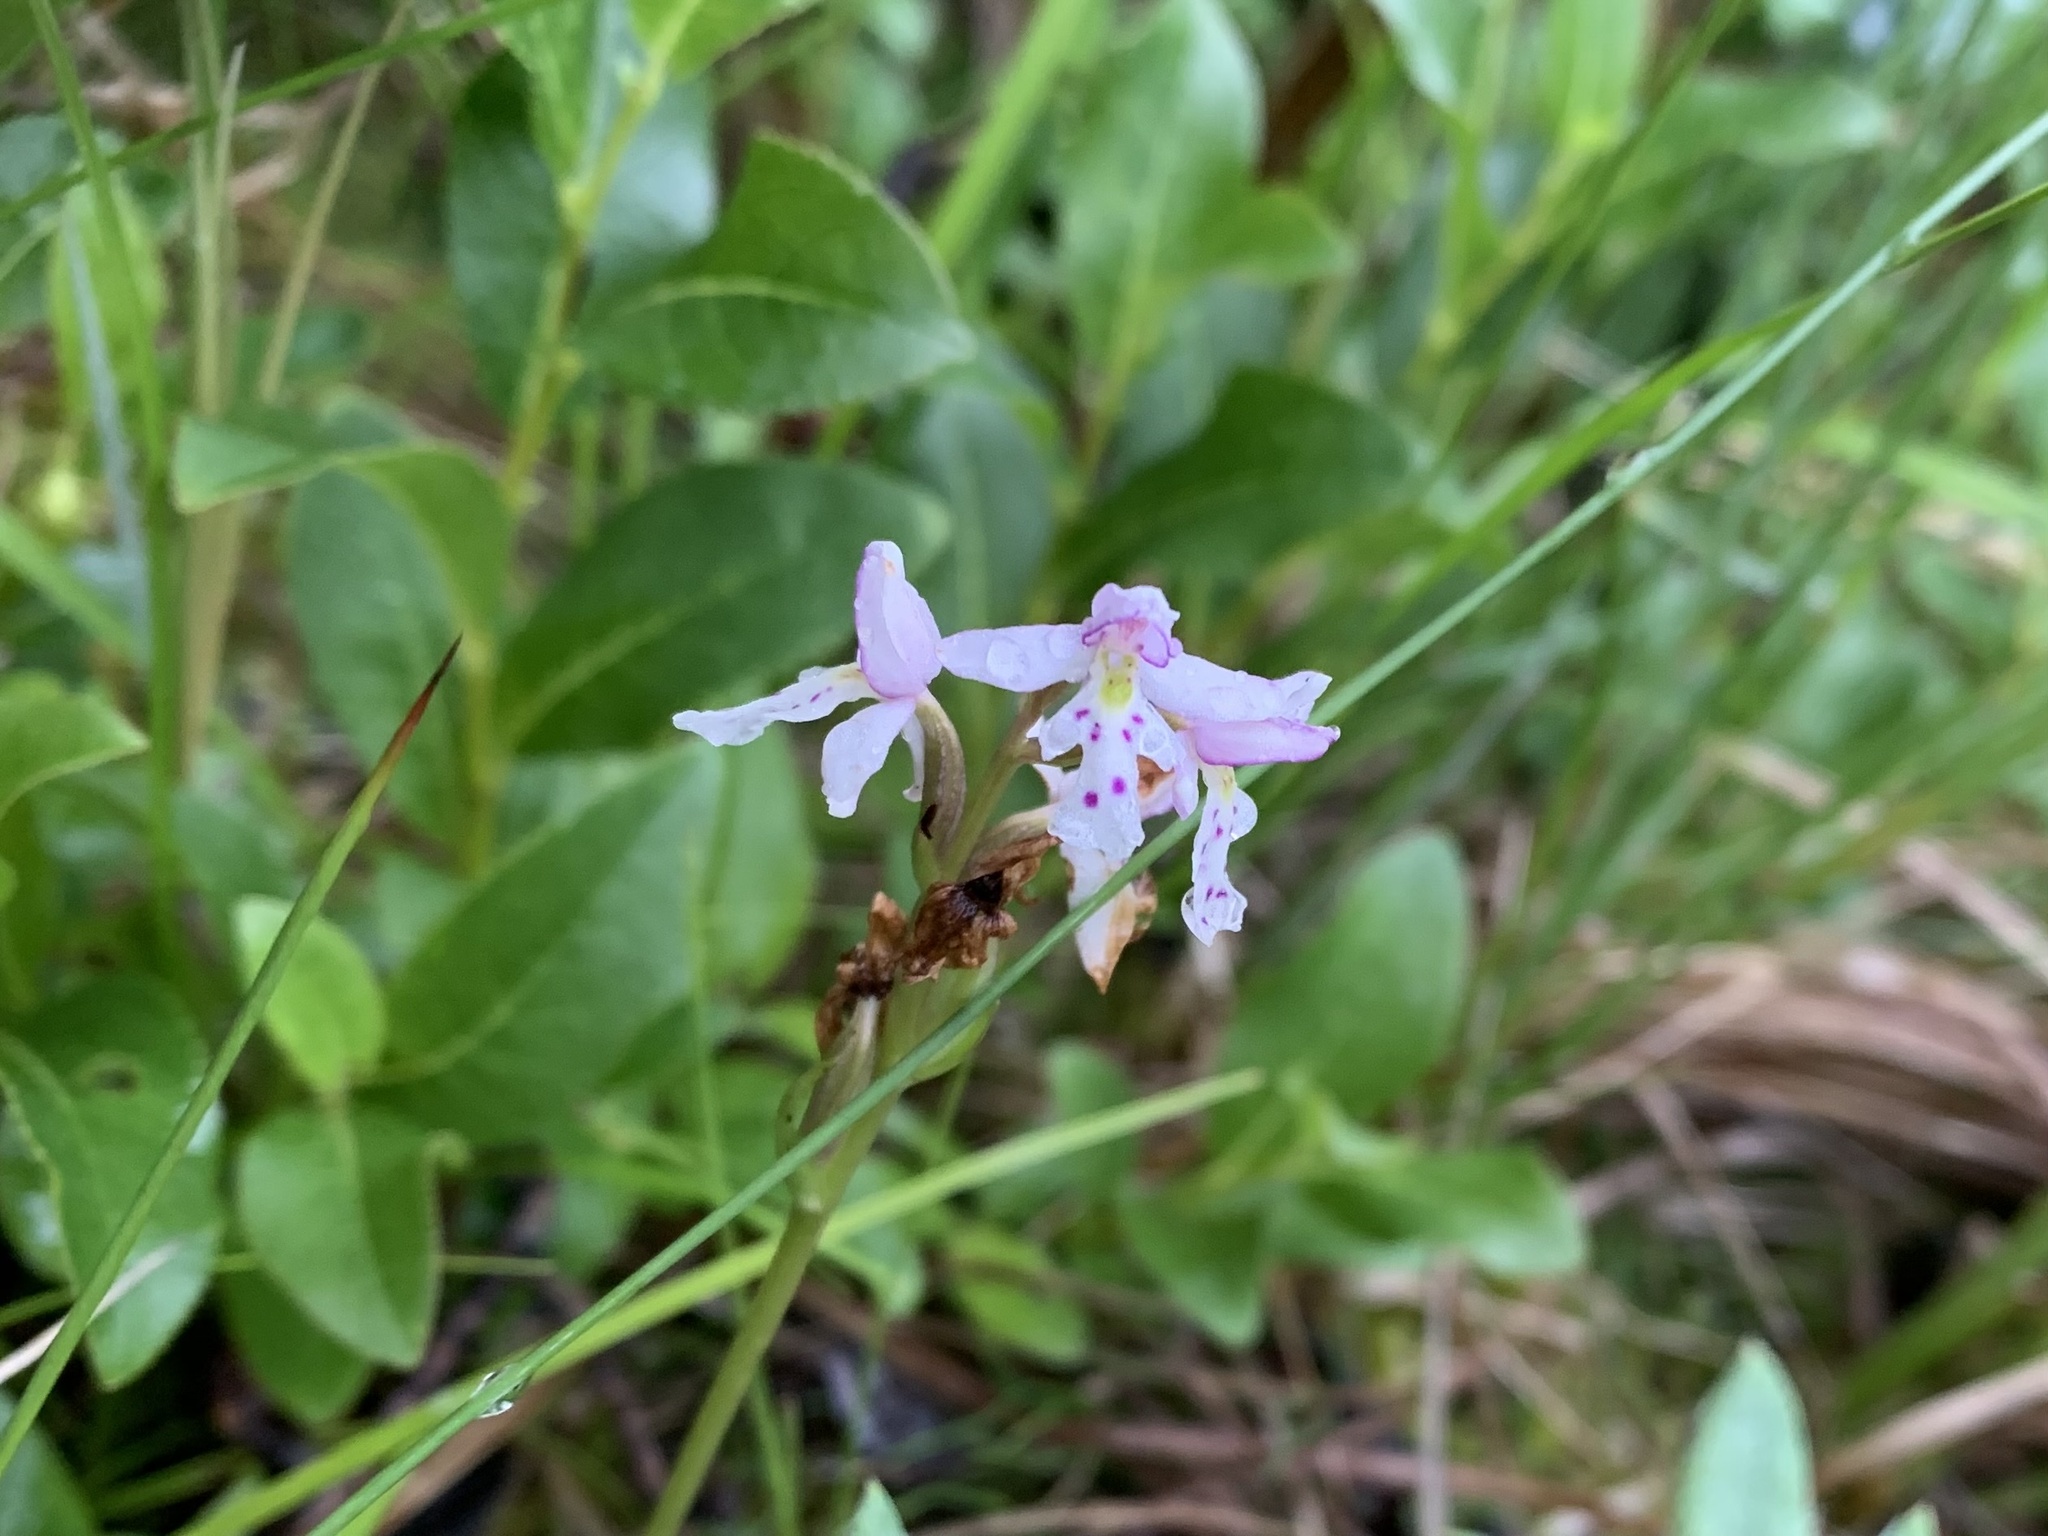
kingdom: Plantae
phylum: Tracheophyta
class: Liliopsida
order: Asparagales
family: Orchidaceae
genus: Galearis
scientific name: Galearis rotundifolia
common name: One-leaved orchis
